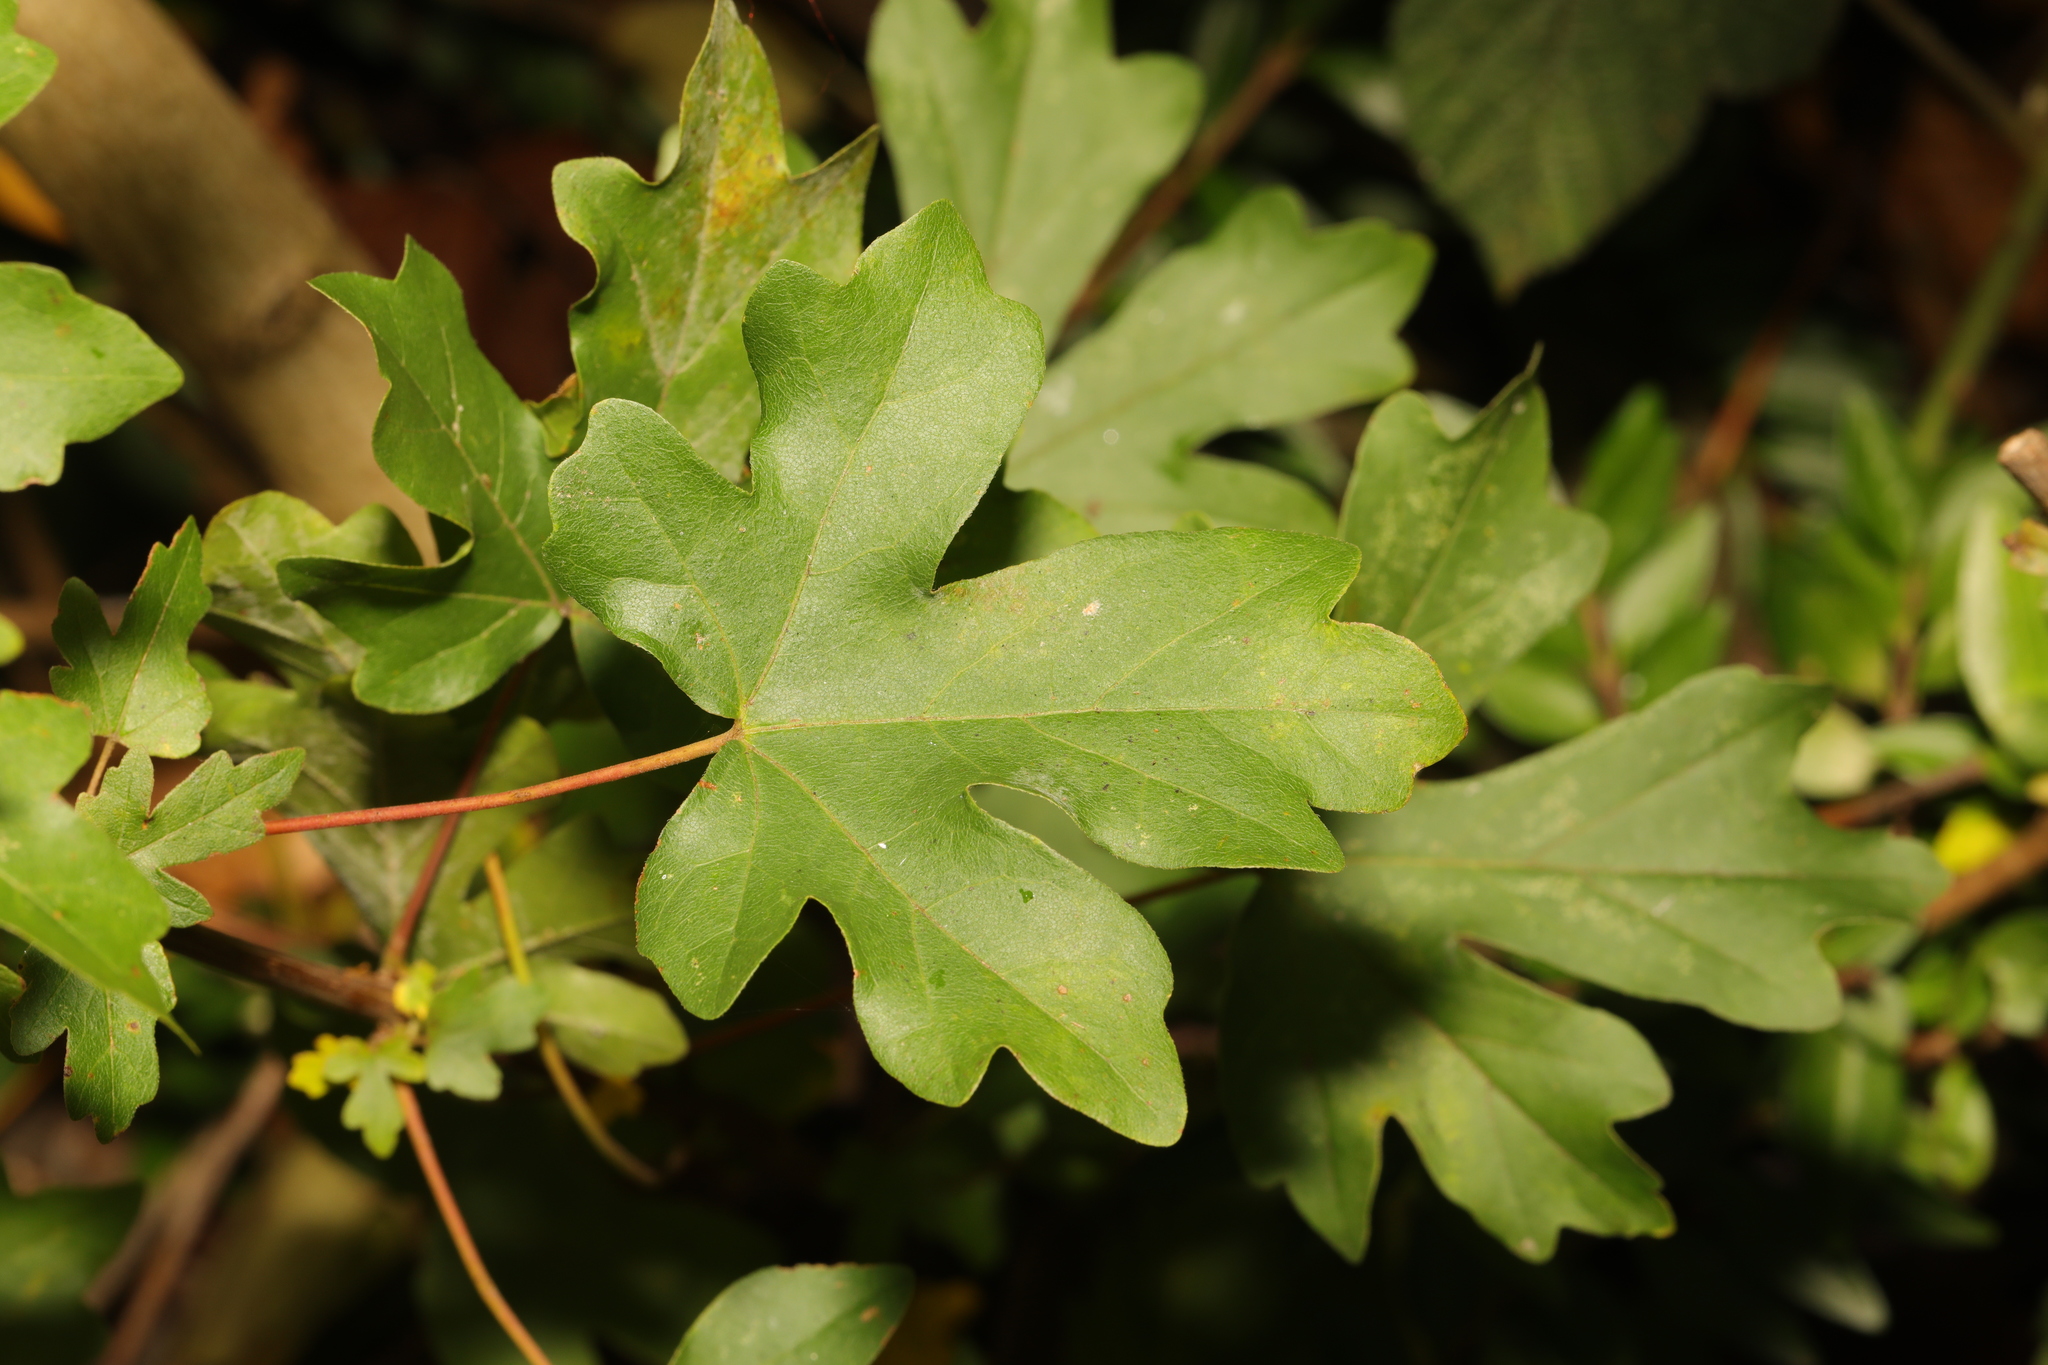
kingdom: Plantae
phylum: Tracheophyta
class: Magnoliopsida
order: Sapindales
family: Sapindaceae
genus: Acer
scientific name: Acer campestre
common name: Field maple
